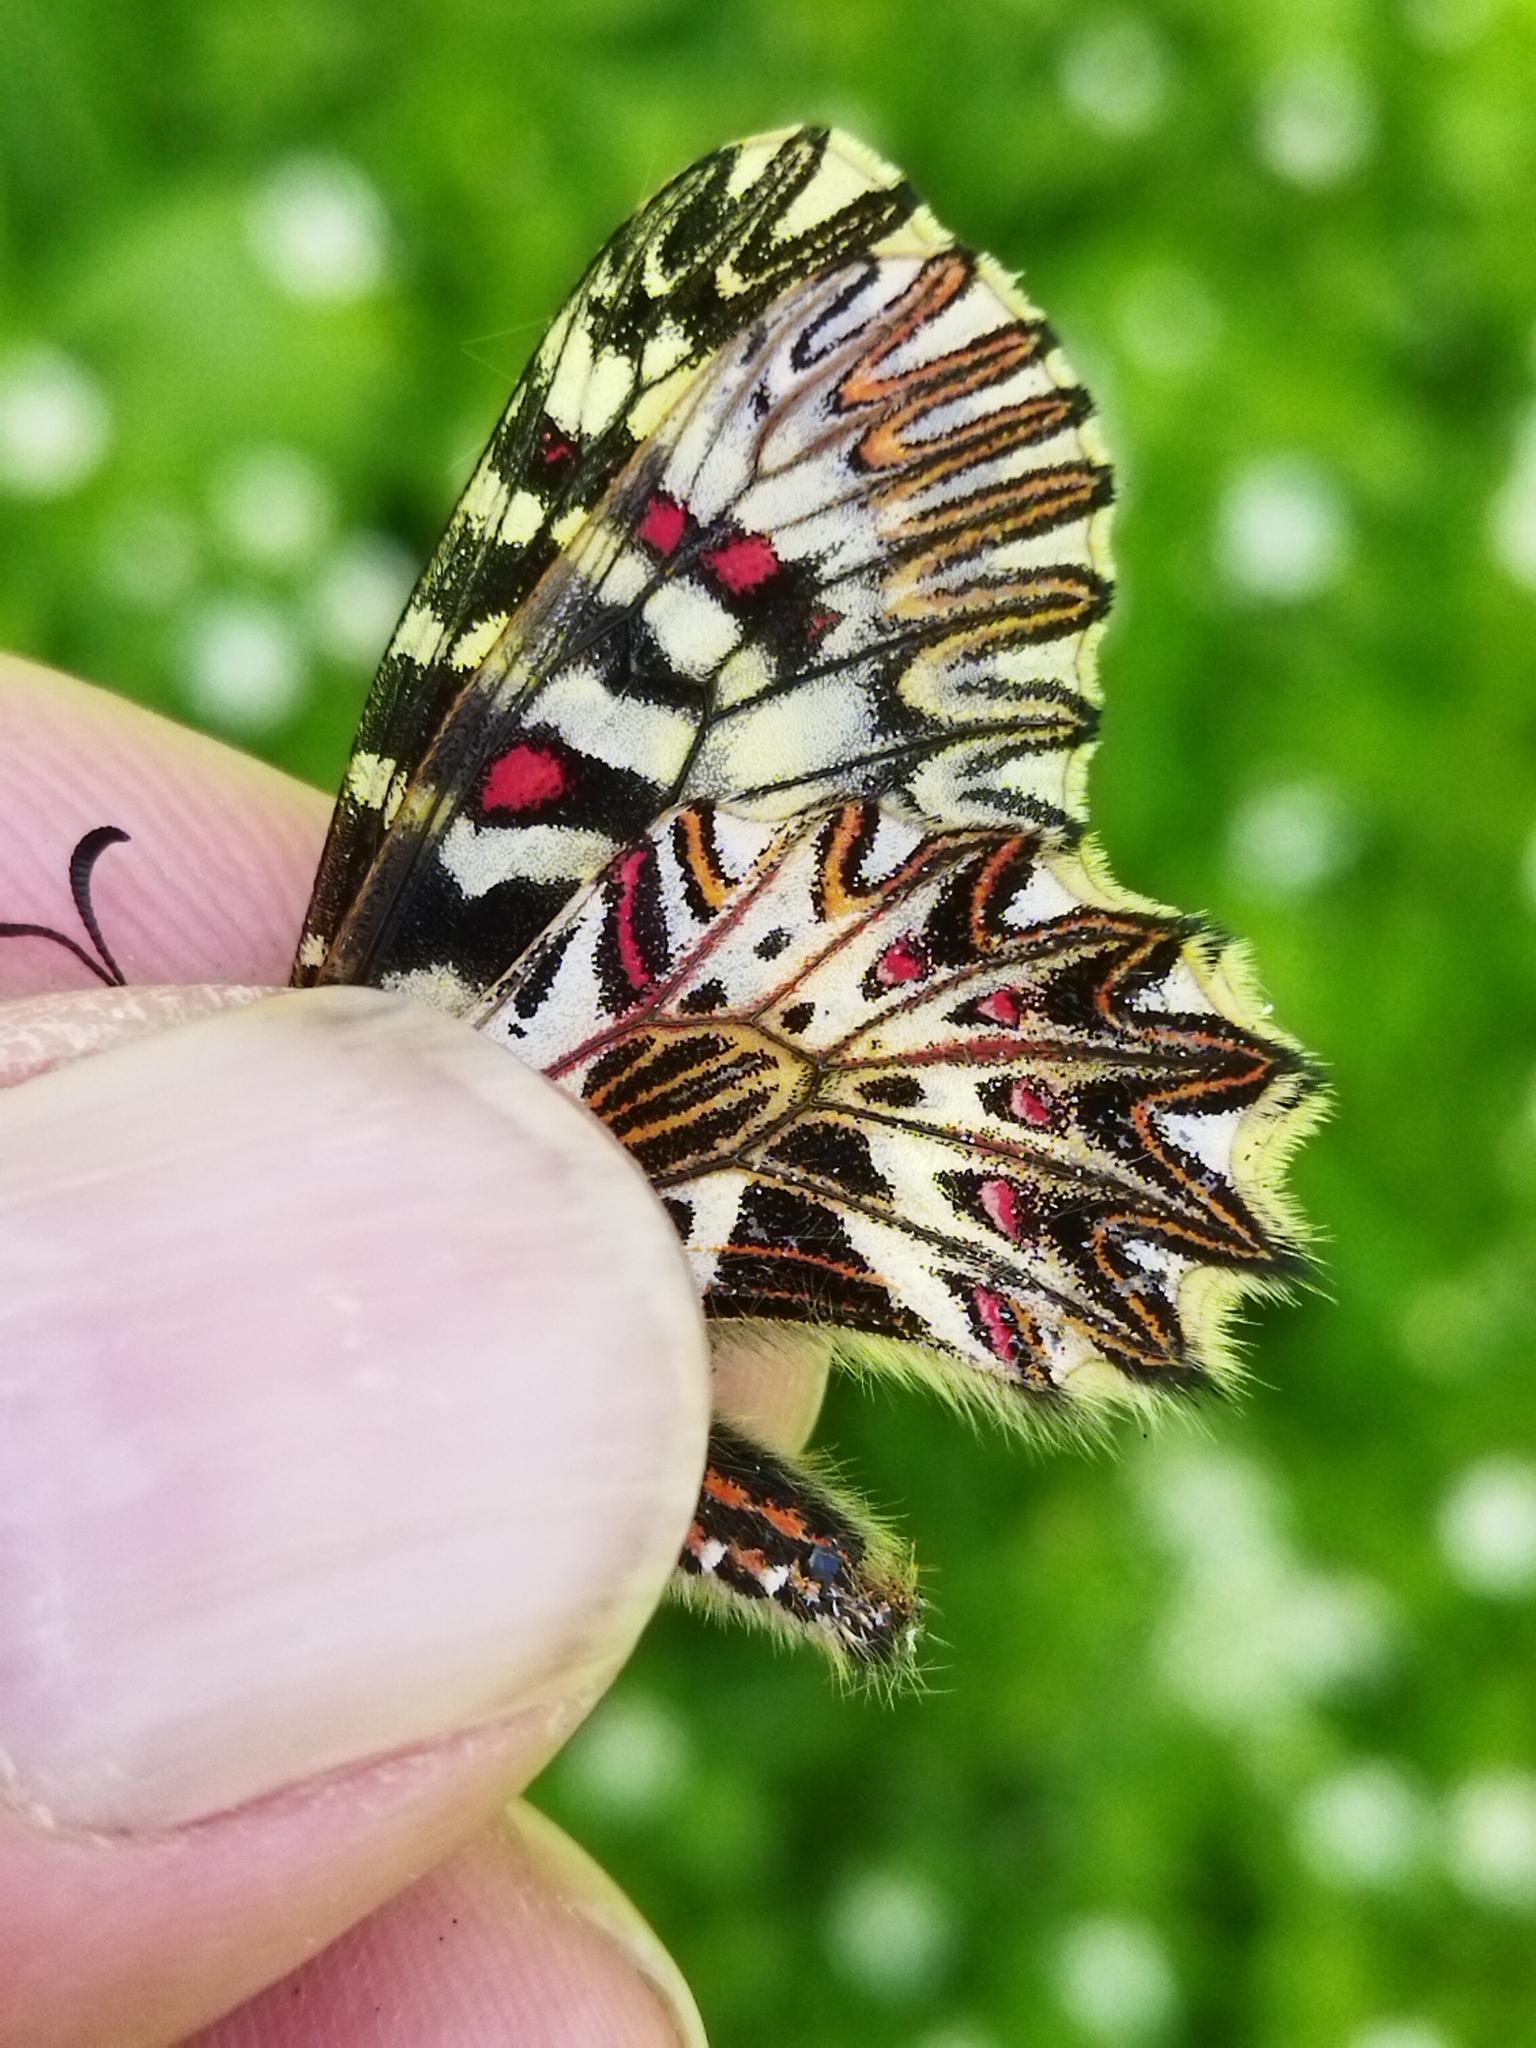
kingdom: Animalia
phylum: Arthropoda
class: Insecta
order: Lepidoptera
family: Papilionidae
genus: Zerynthia
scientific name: Zerynthia polyxena
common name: Southern festoon
